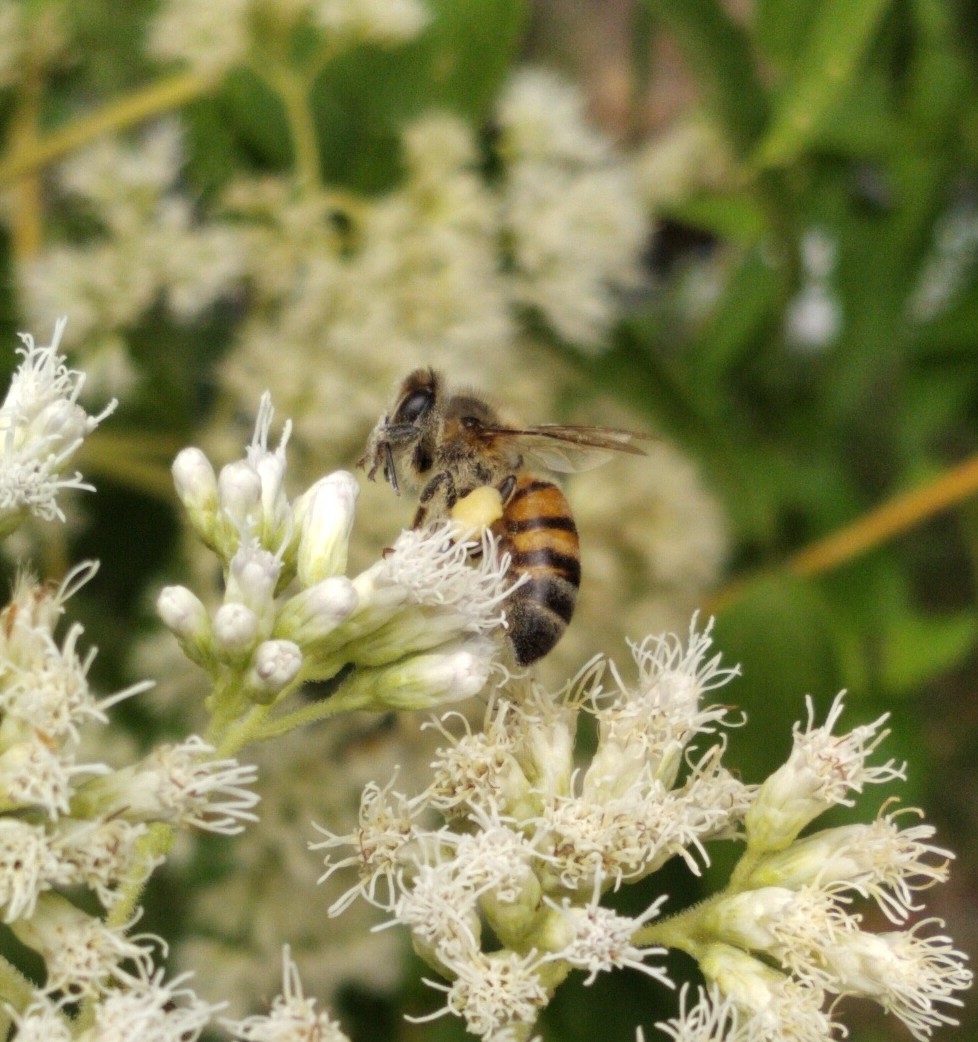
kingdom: Animalia
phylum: Arthropoda
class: Insecta
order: Hymenoptera
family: Apidae
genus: Apis
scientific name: Apis mellifera
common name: Honey bee
